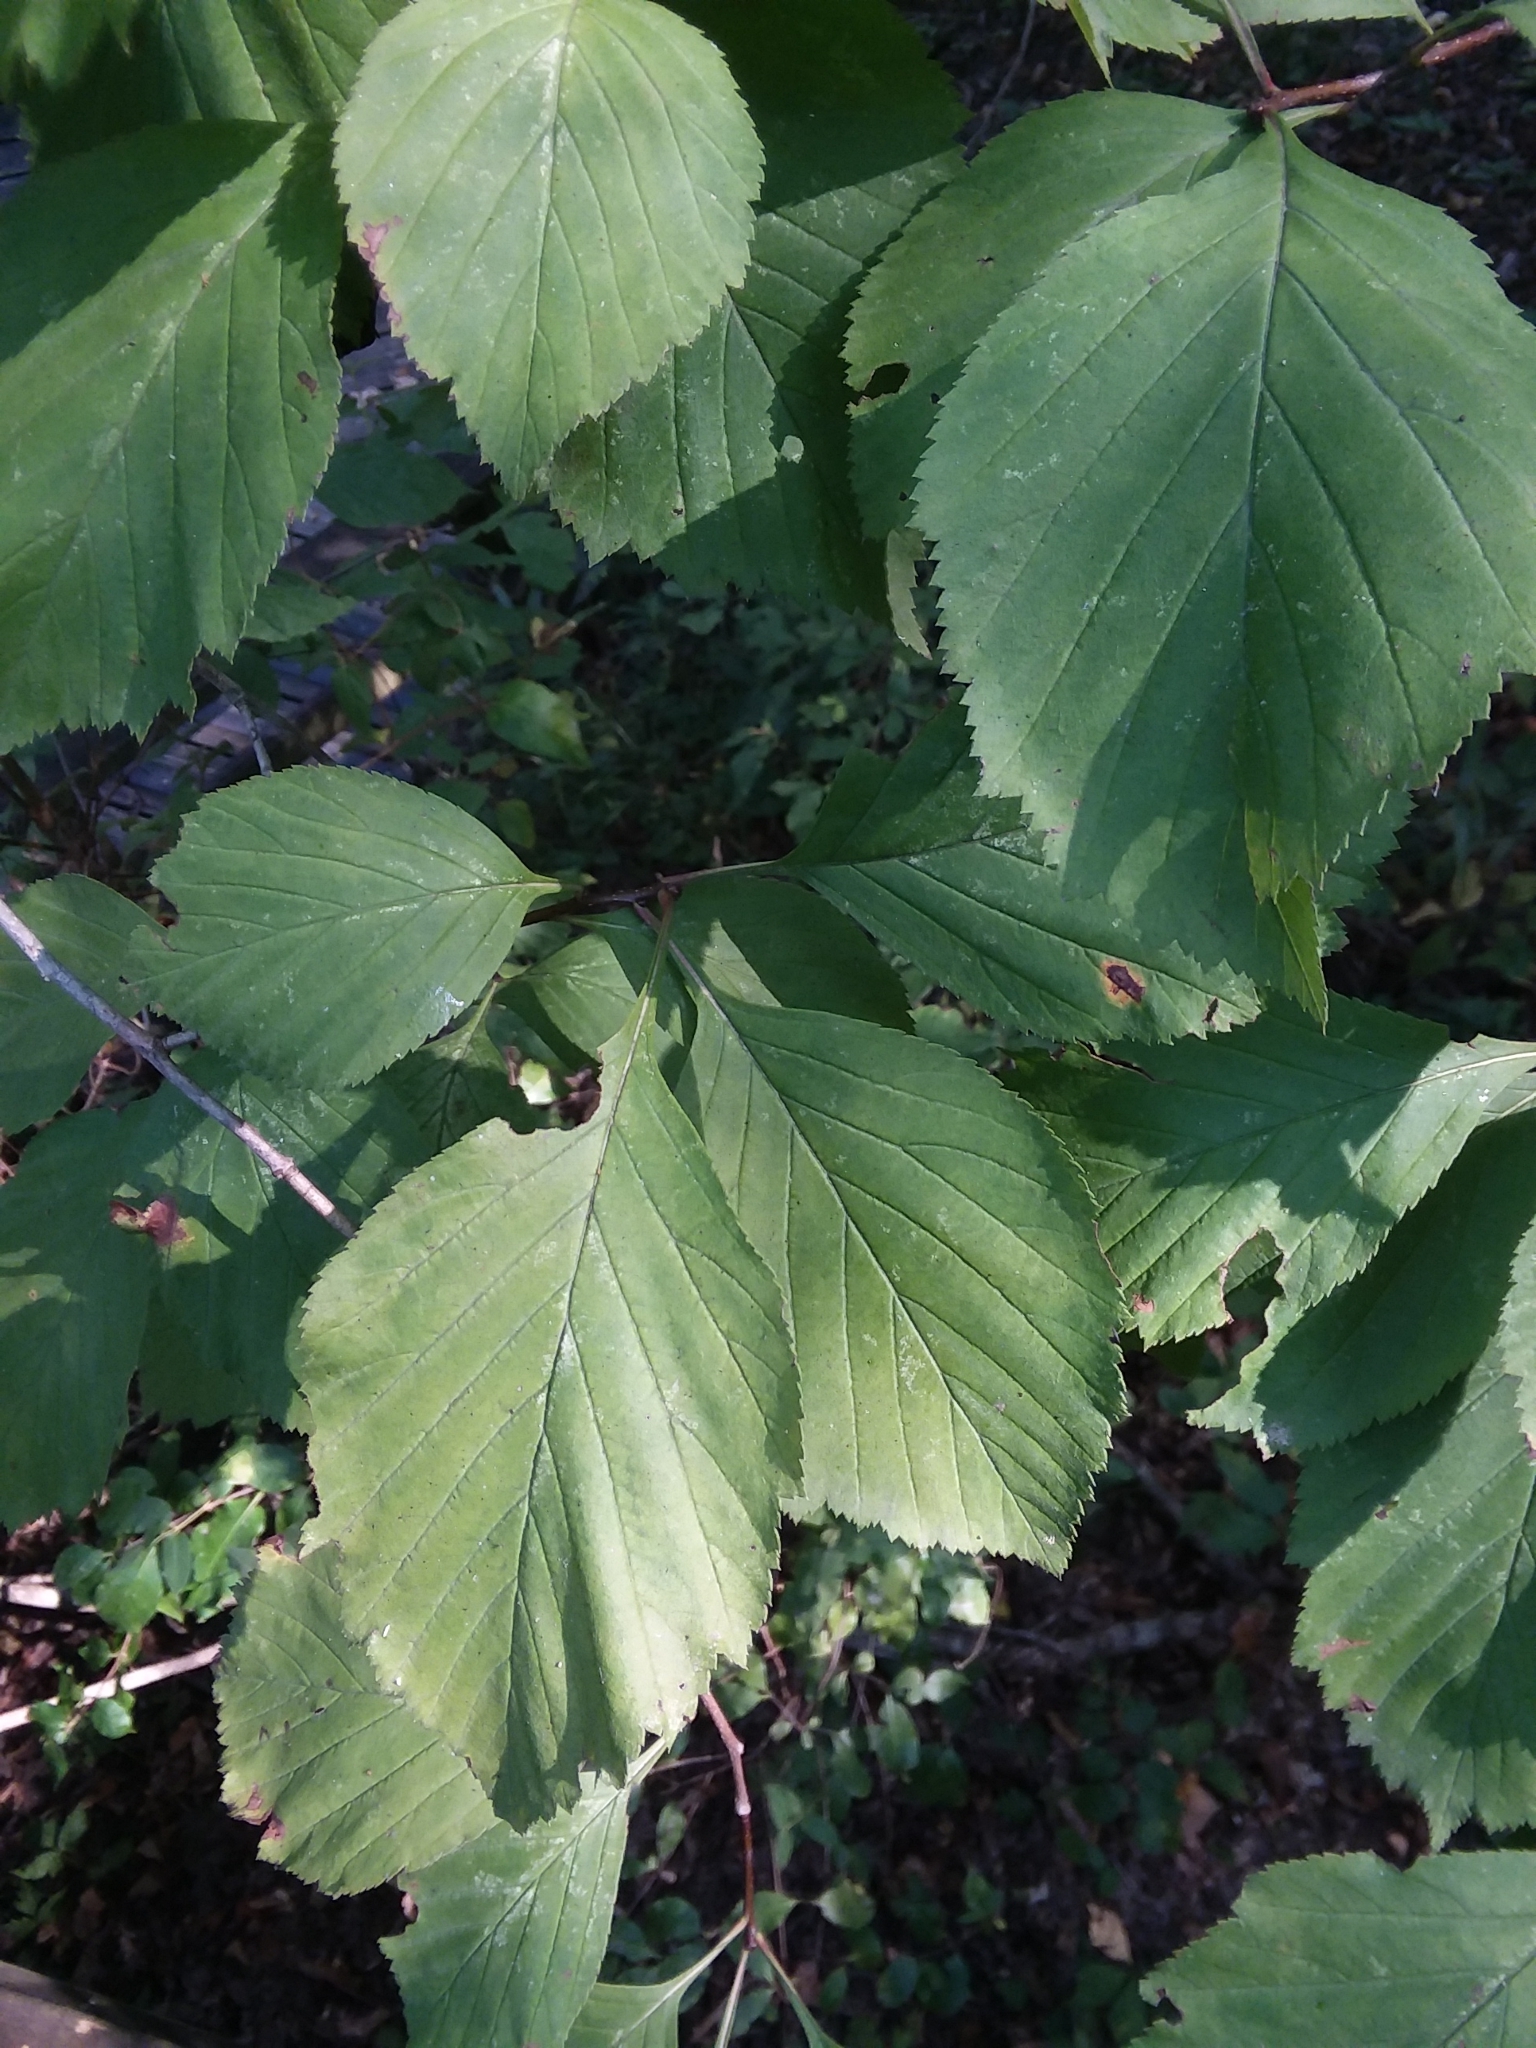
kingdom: Plantae
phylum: Tracheophyta
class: Magnoliopsida
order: Rosales
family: Rosaceae
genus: Crataegus
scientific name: Crataegus calpodendron
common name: Pear hawthorn
